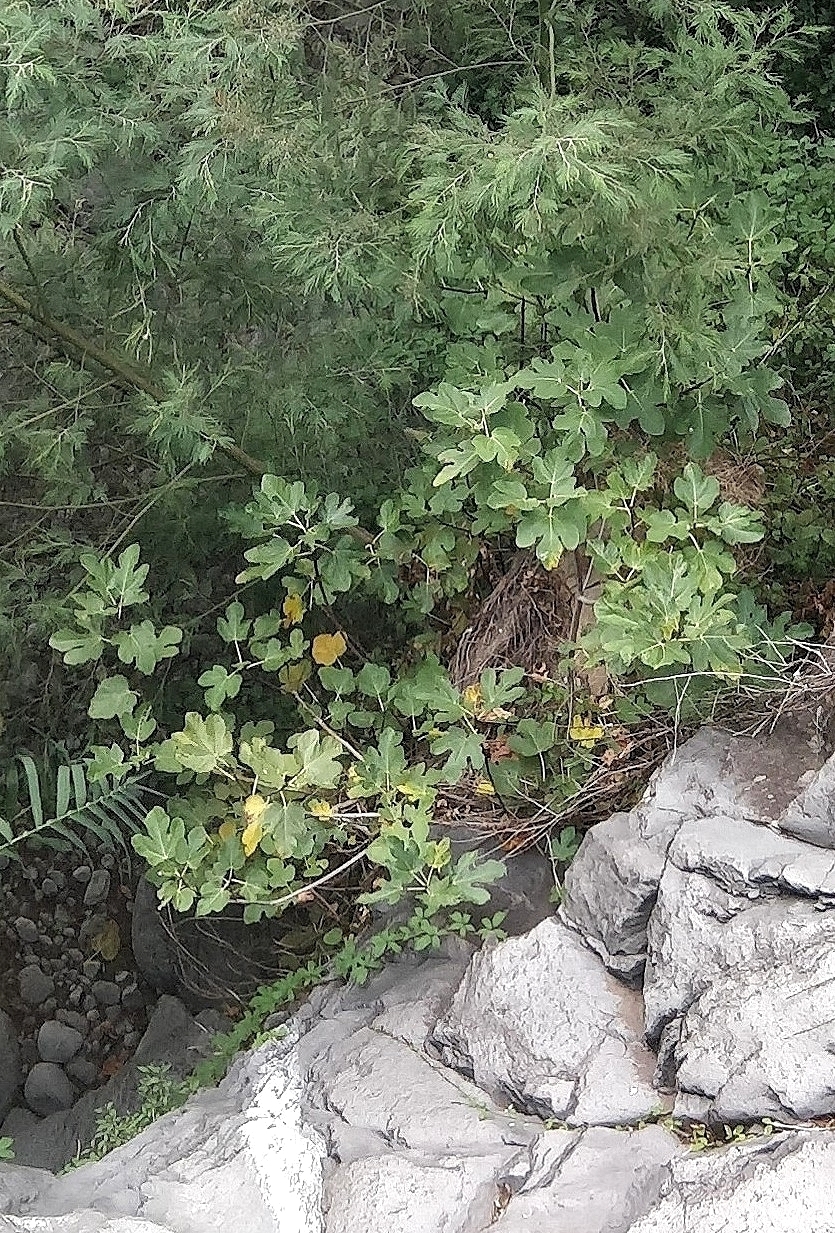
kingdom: Plantae
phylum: Tracheophyta
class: Magnoliopsida
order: Rosales
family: Moraceae
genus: Ficus
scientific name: Ficus carica
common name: Fig
